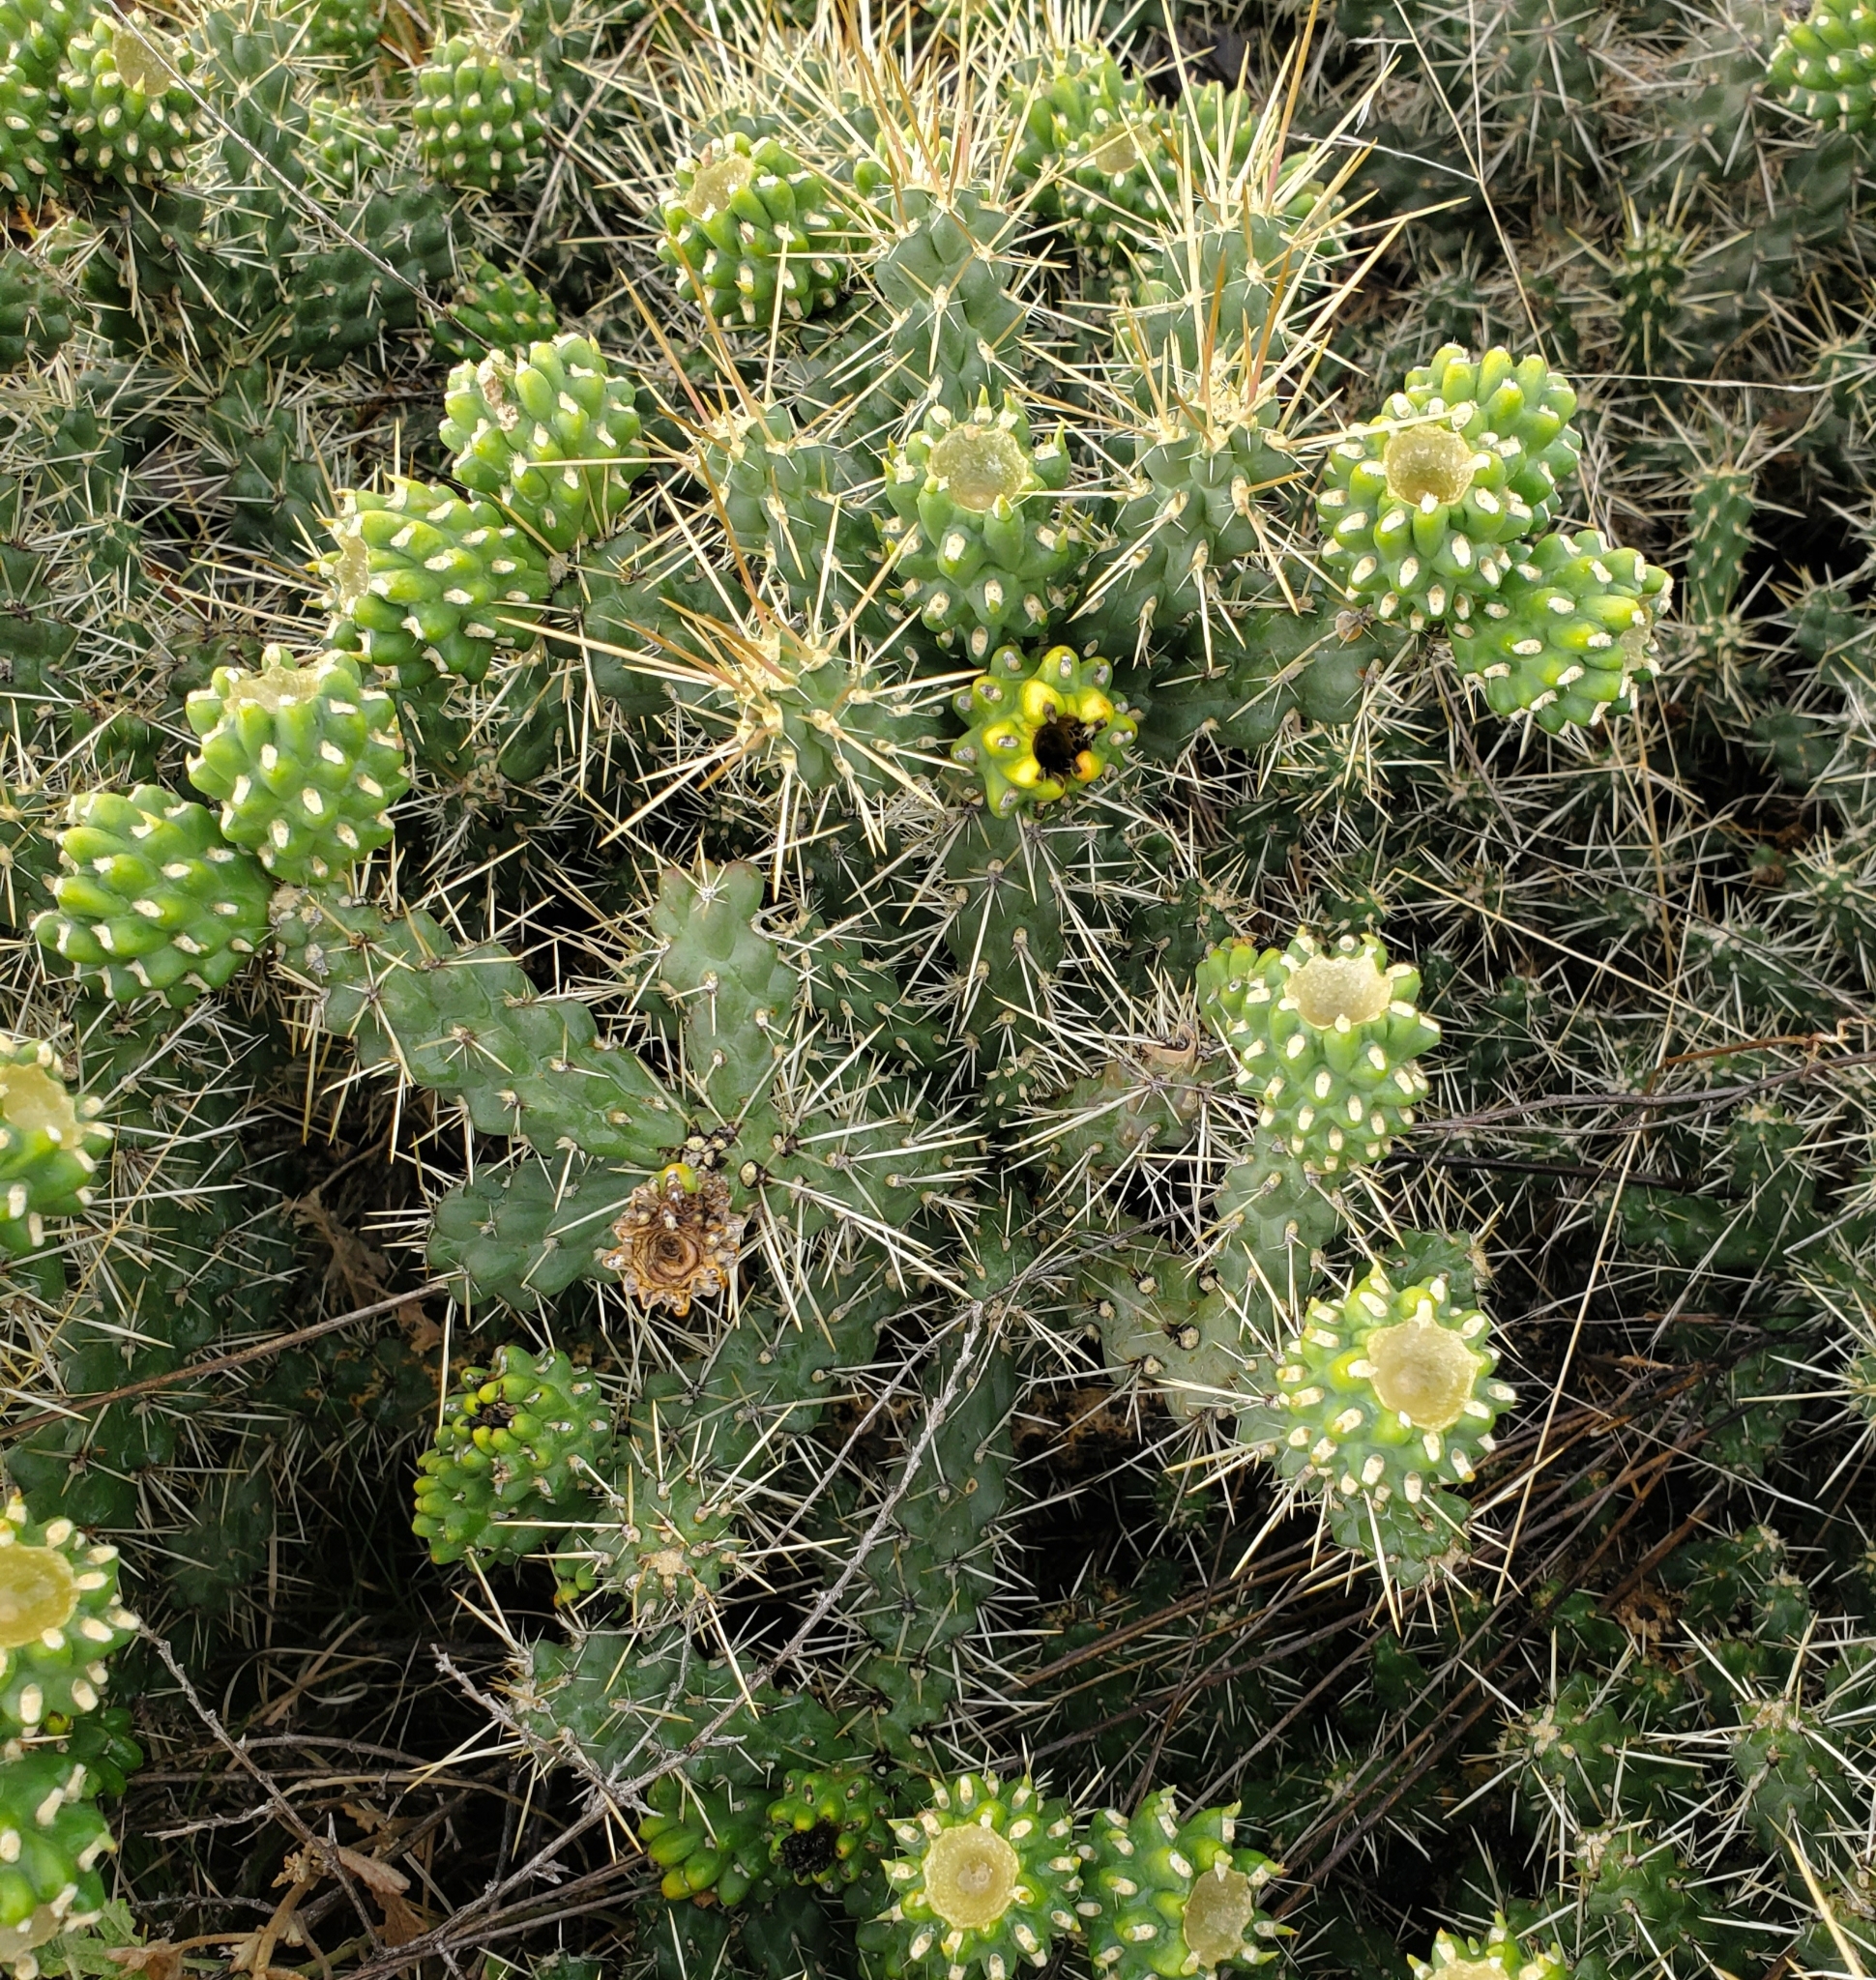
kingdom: Plantae
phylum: Tracheophyta
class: Magnoliopsida
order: Caryophyllales
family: Cactaceae
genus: Cylindropuntia
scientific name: Cylindropuntia whipplei
